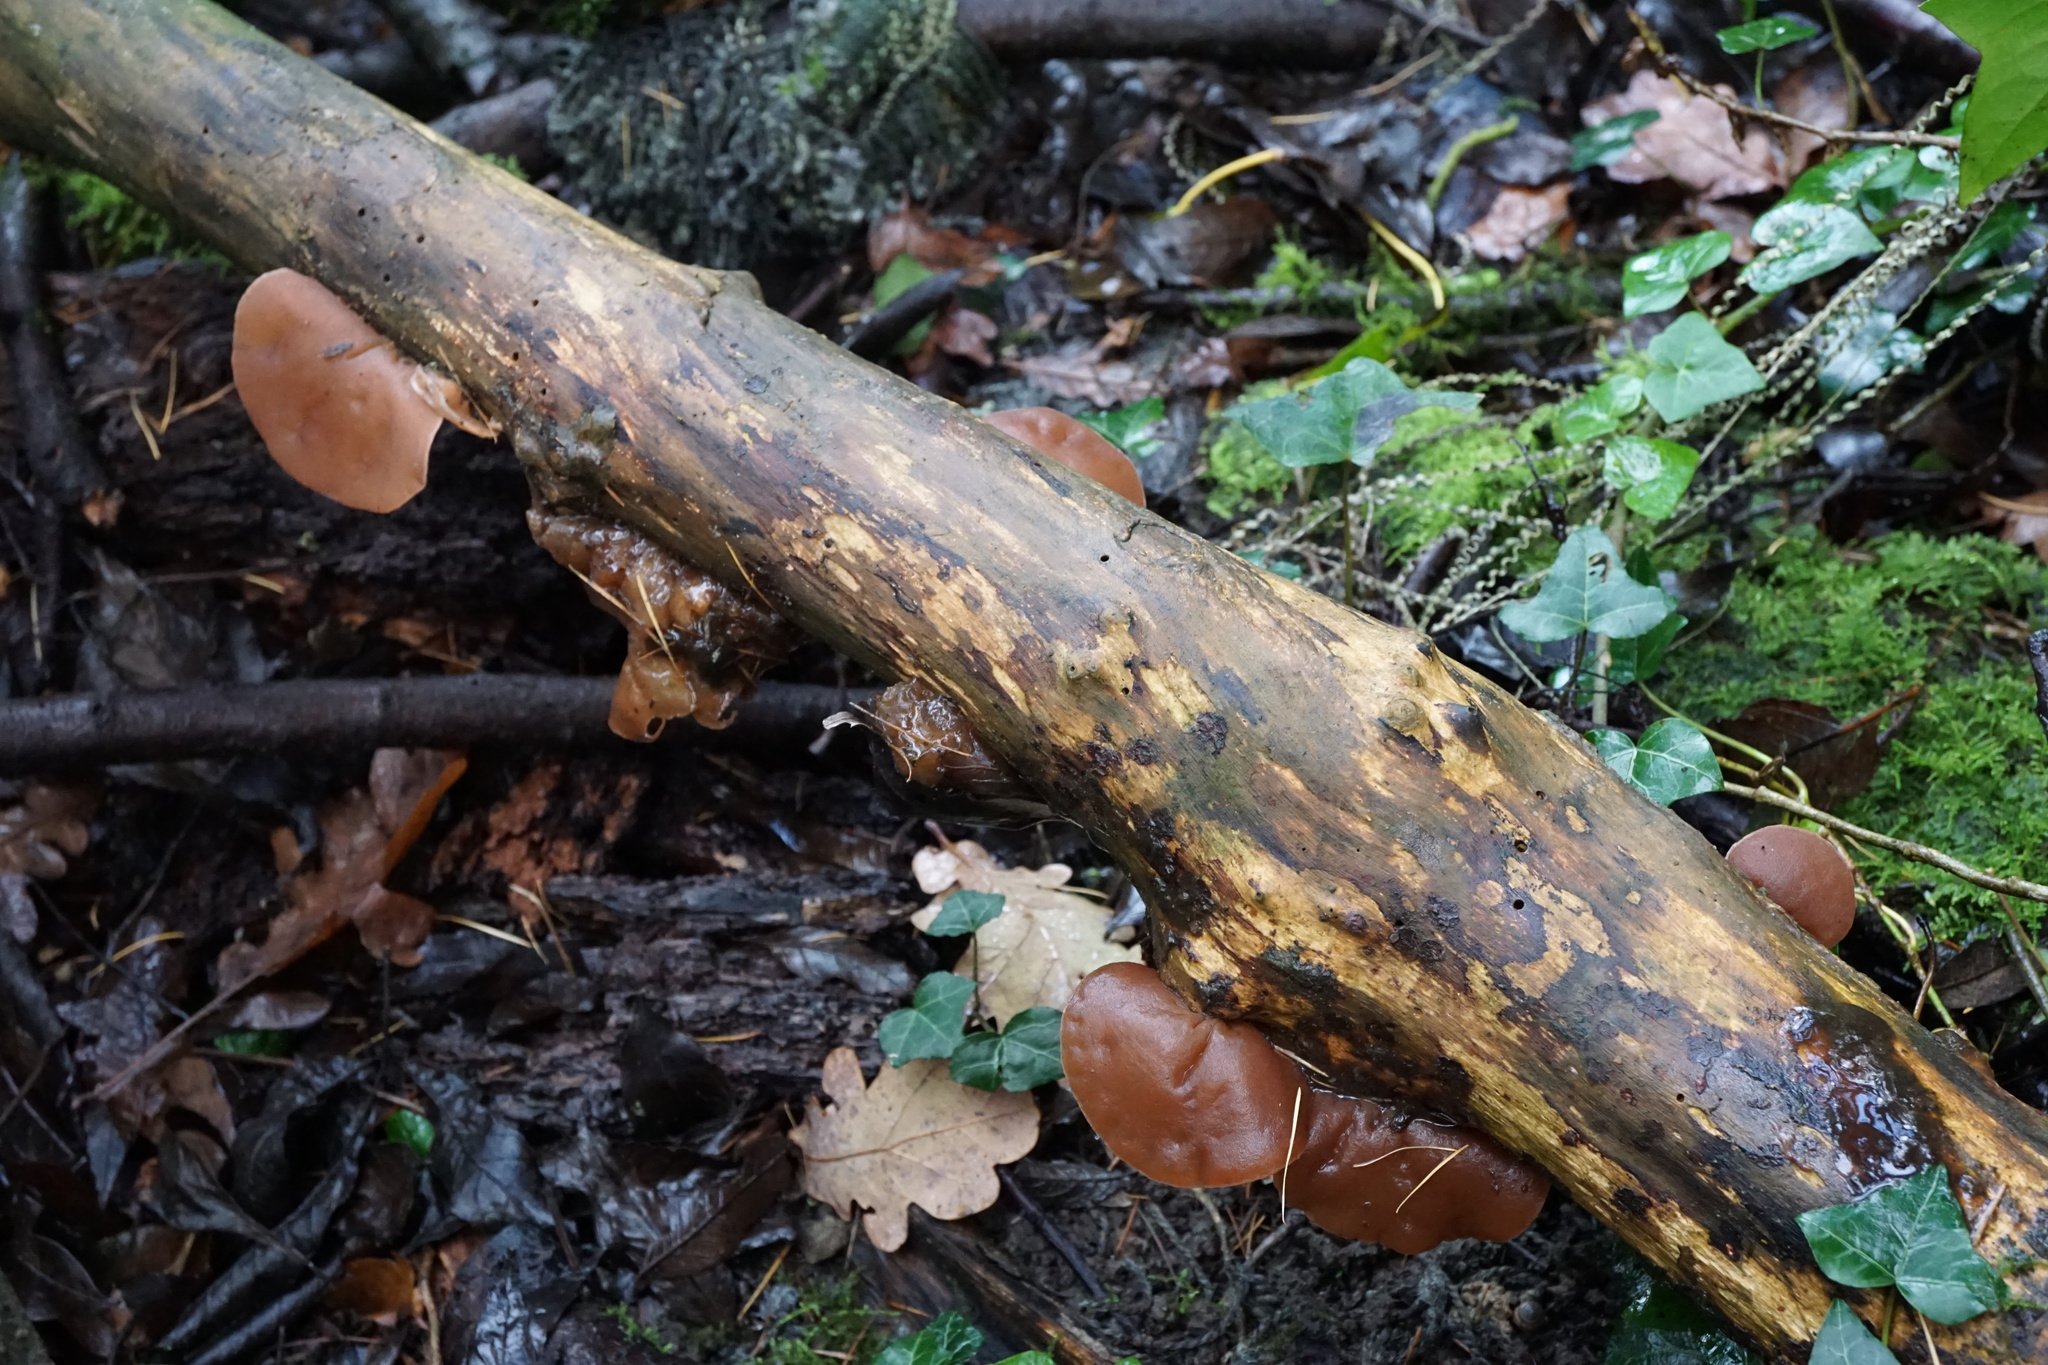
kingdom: Fungi
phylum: Basidiomycota
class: Agaricomycetes
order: Auriculariales
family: Auriculariaceae
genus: Auricularia
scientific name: Auricularia auricula-judae
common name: Jelly ear
